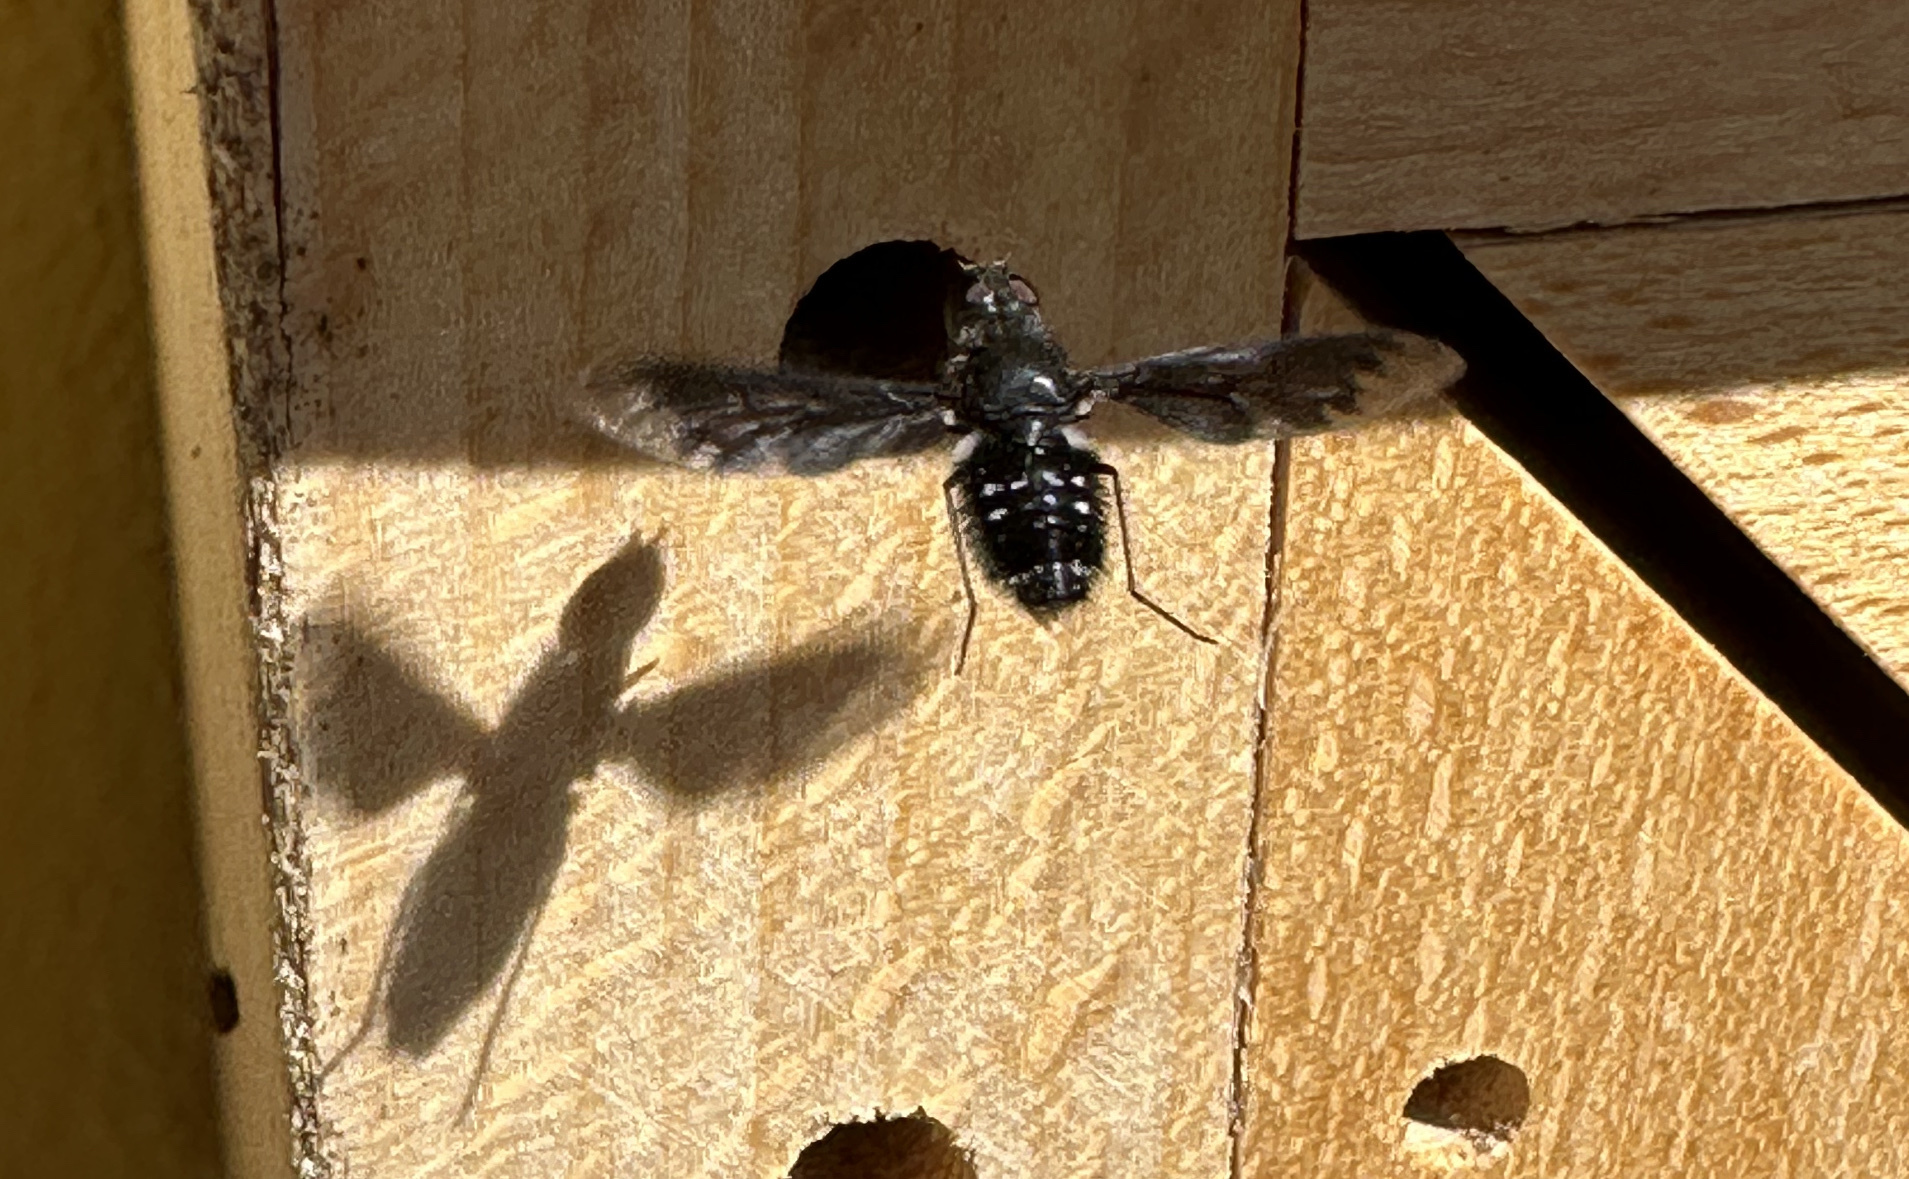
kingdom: Animalia
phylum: Arthropoda
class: Insecta
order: Diptera
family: Bombyliidae
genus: Anthrax
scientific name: Anthrax anthrax
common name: Anthracite bee-fly
